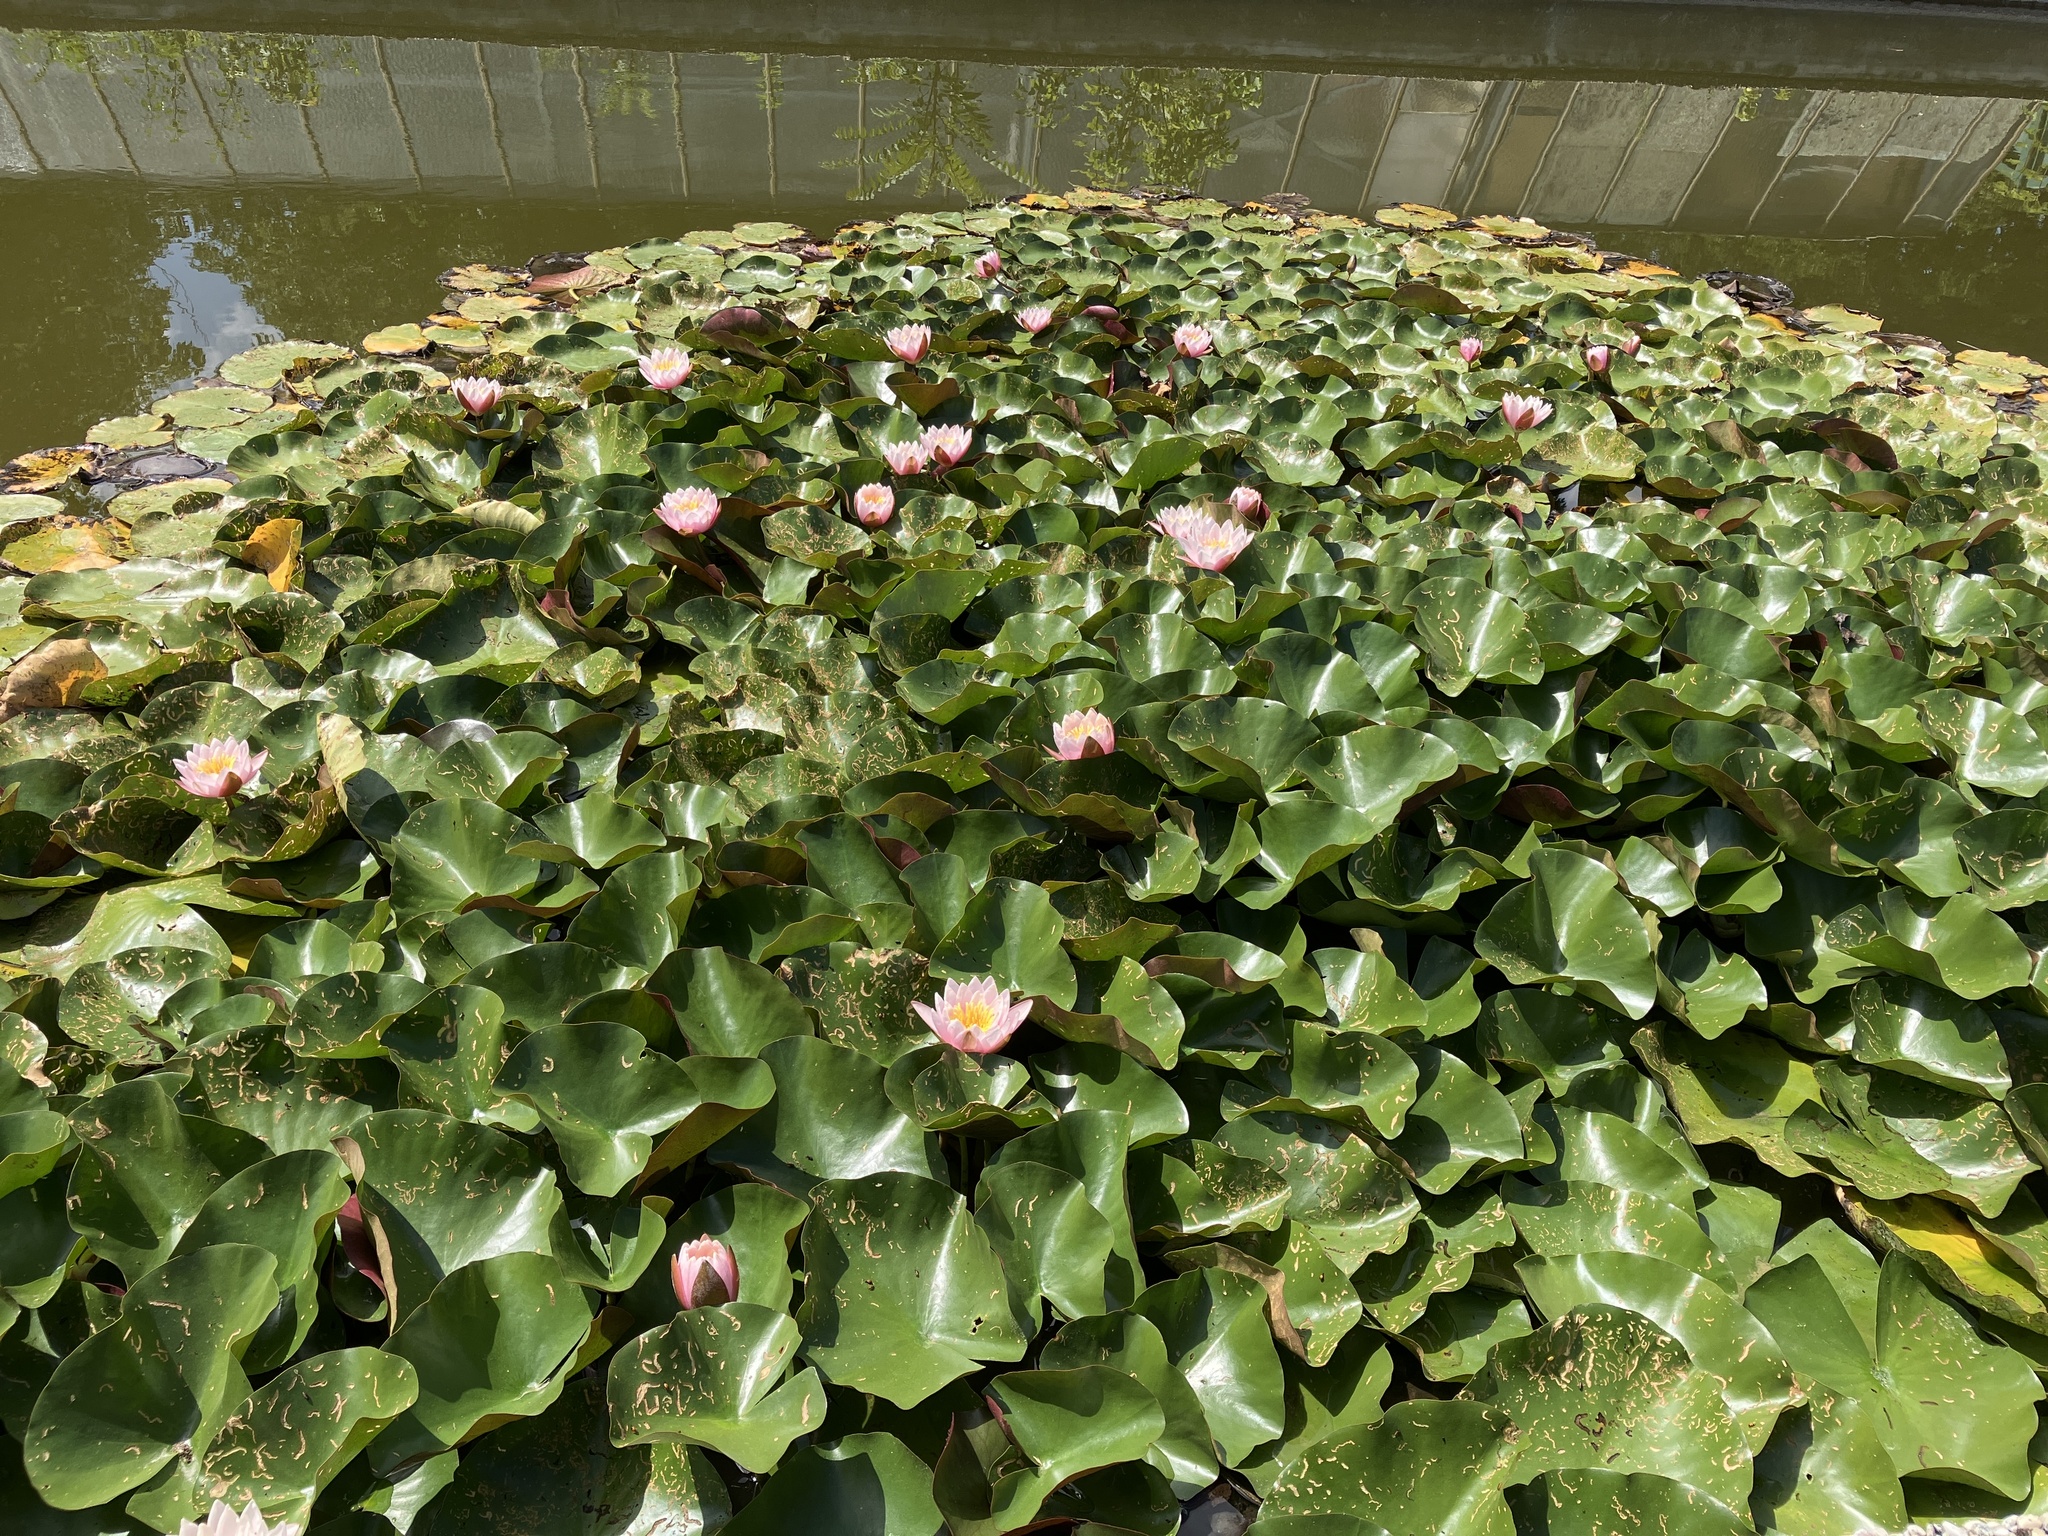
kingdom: Plantae
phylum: Tracheophyta
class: Magnoliopsida
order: Nymphaeales
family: Nymphaeaceae
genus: Nymphaea
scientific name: Nymphaea alba
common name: White water-lily
